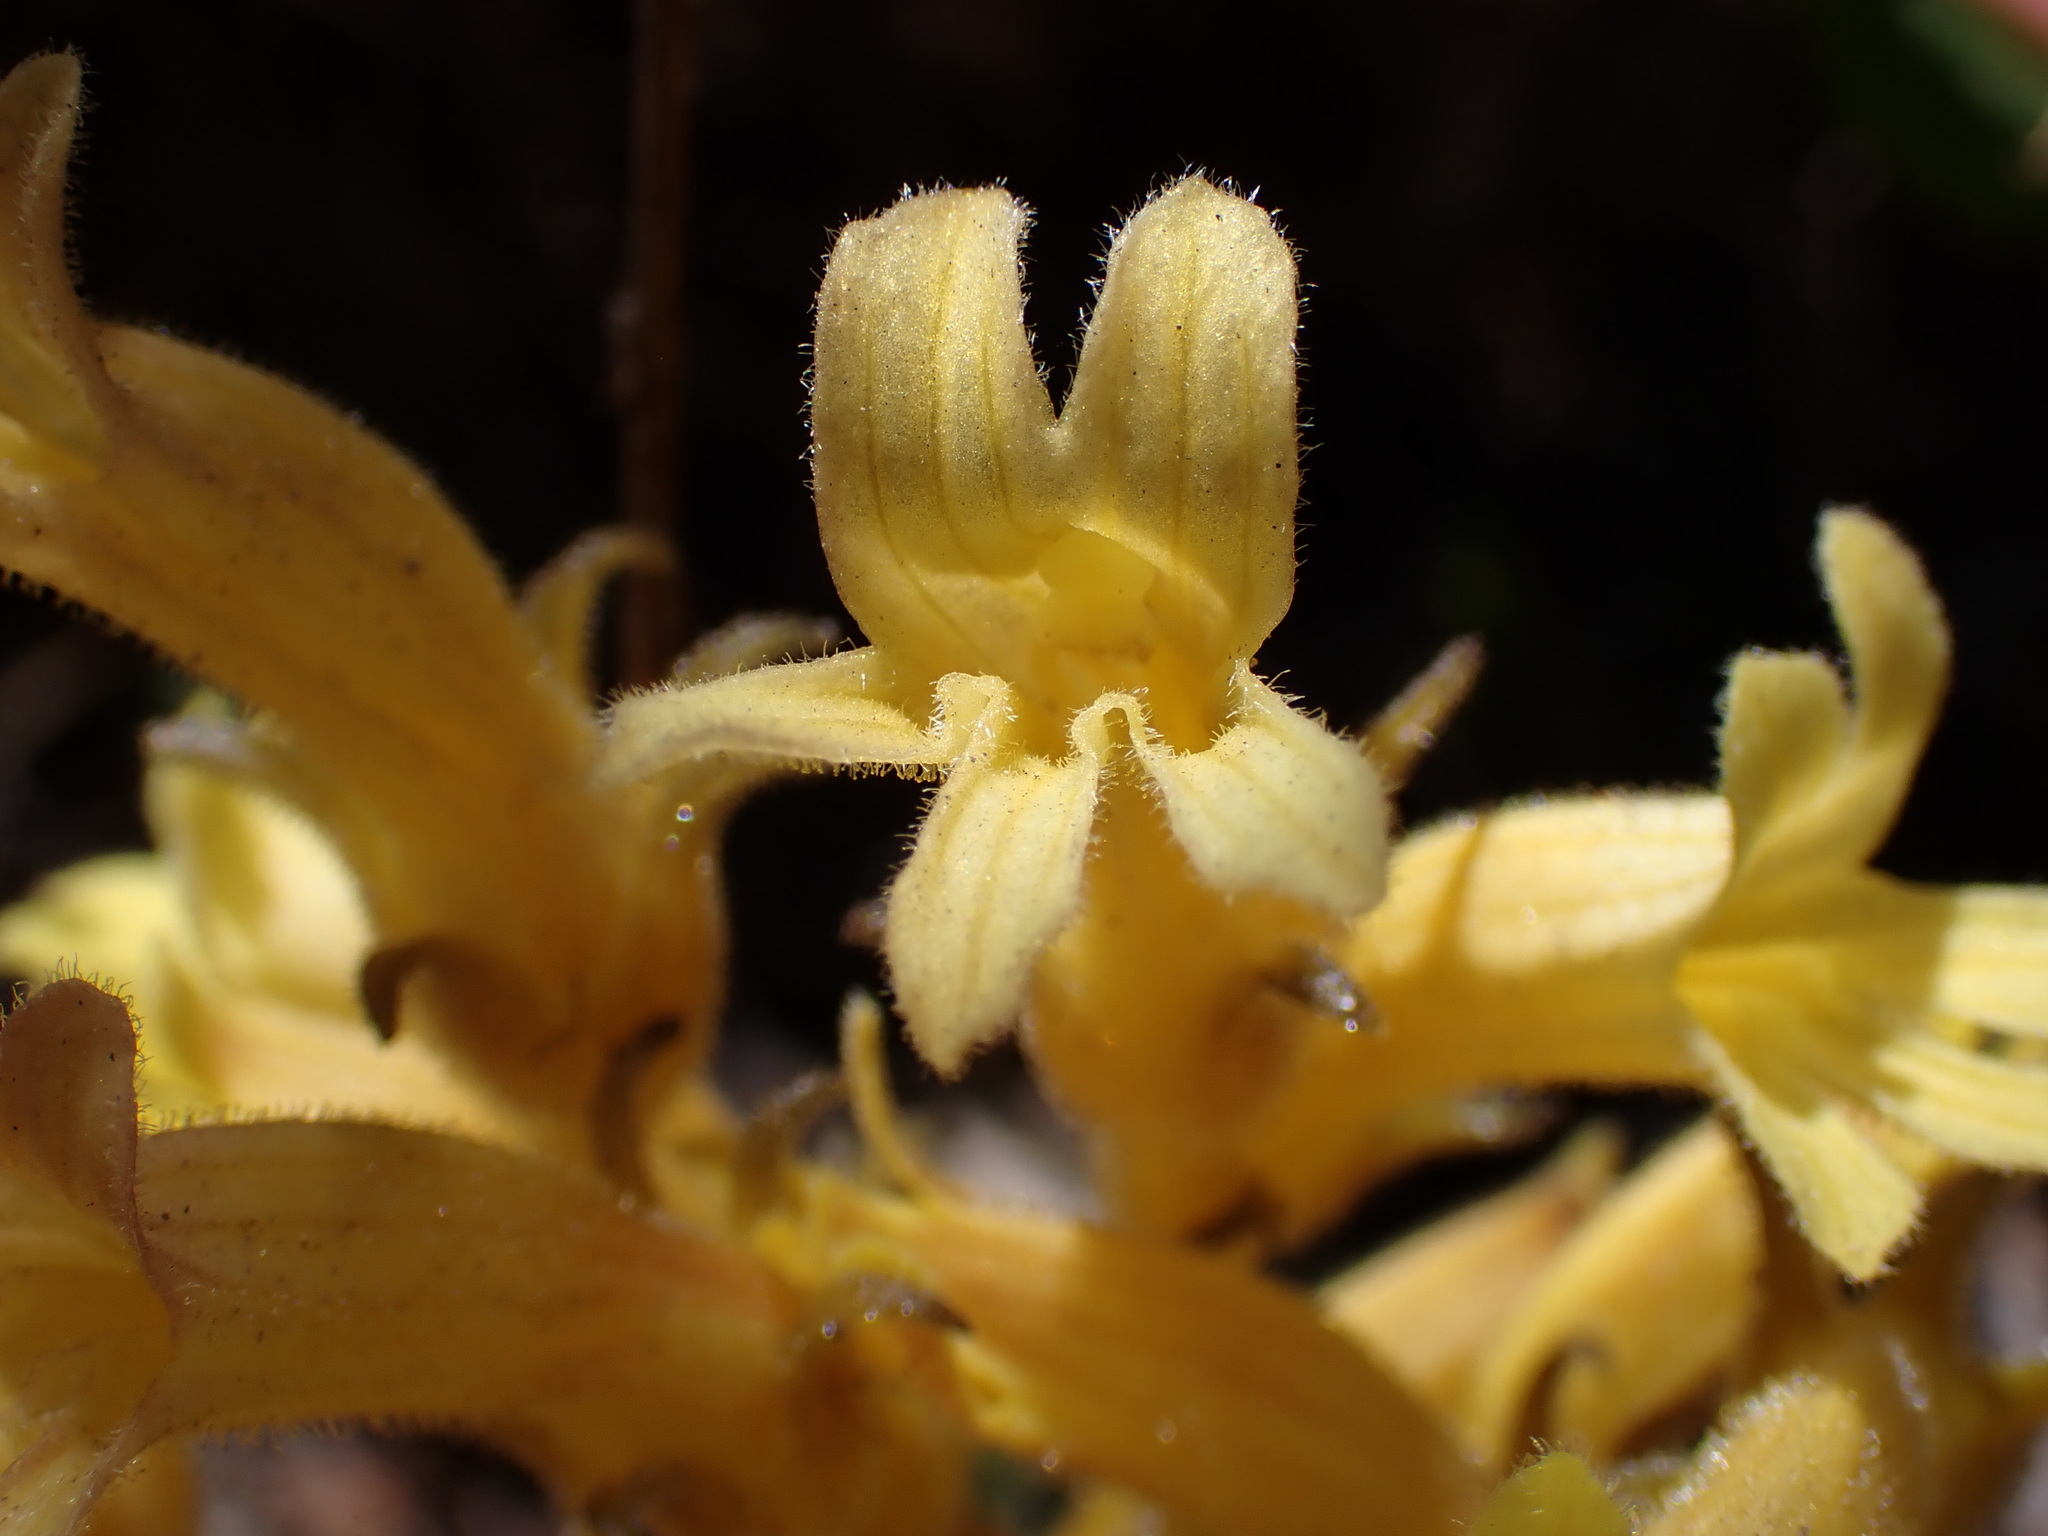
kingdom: Plantae
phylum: Tracheophyta
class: Magnoliopsida
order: Lamiales
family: Orobanchaceae
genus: Aphyllon
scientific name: Aphyllon franciscanum
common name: San francisco broomrape
